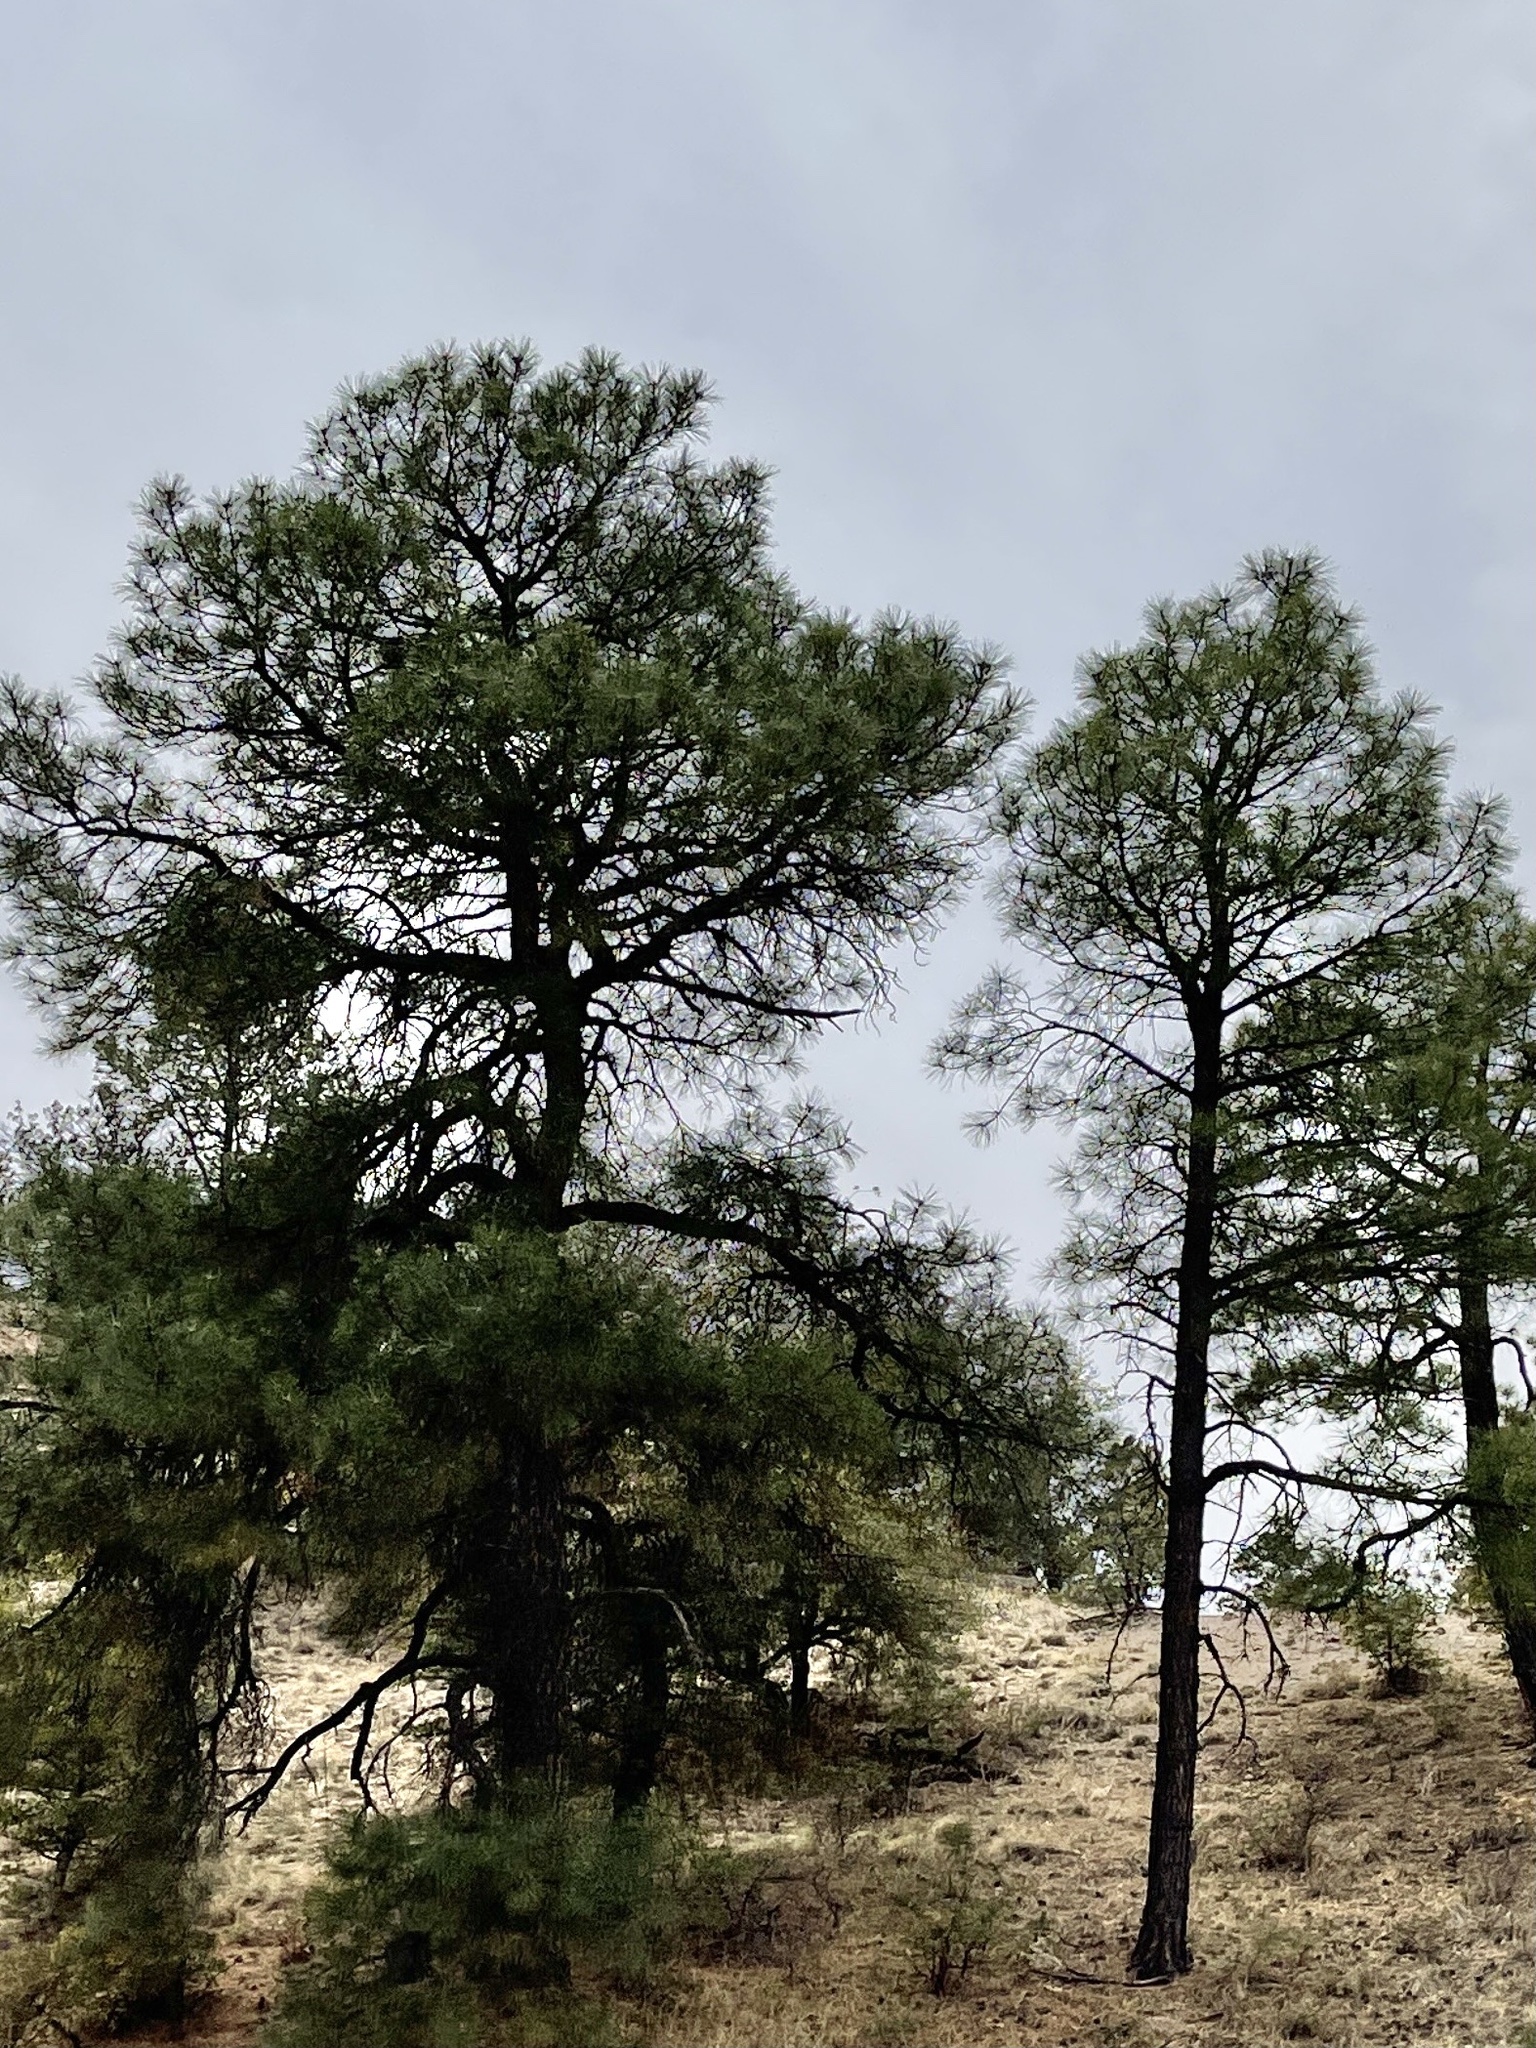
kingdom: Plantae
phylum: Tracheophyta
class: Pinopsida
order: Pinales
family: Pinaceae
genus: Pinus
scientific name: Pinus ponderosa
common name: Western yellow-pine
